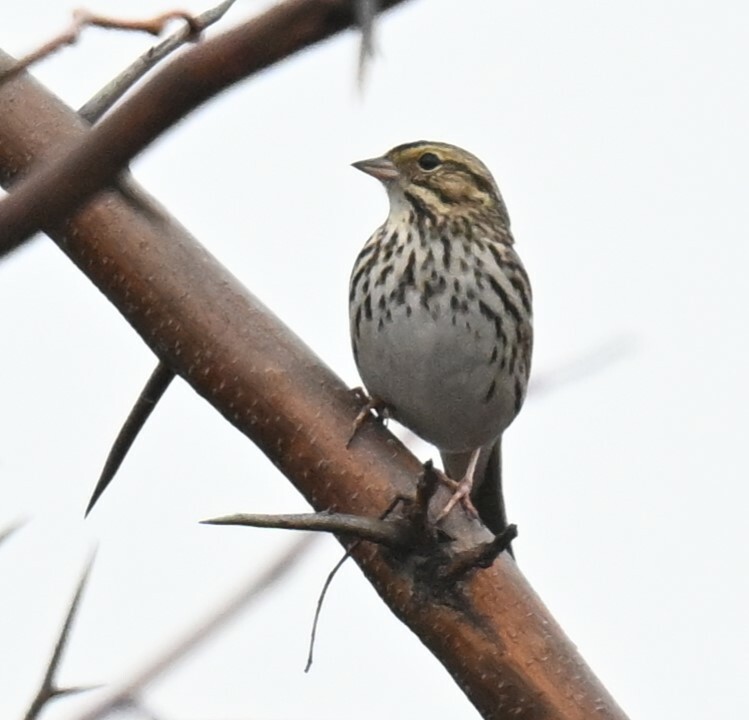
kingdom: Animalia
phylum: Chordata
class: Aves
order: Passeriformes
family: Passerellidae
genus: Passerculus
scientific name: Passerculus sandwichensis
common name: Savannah sparrow
